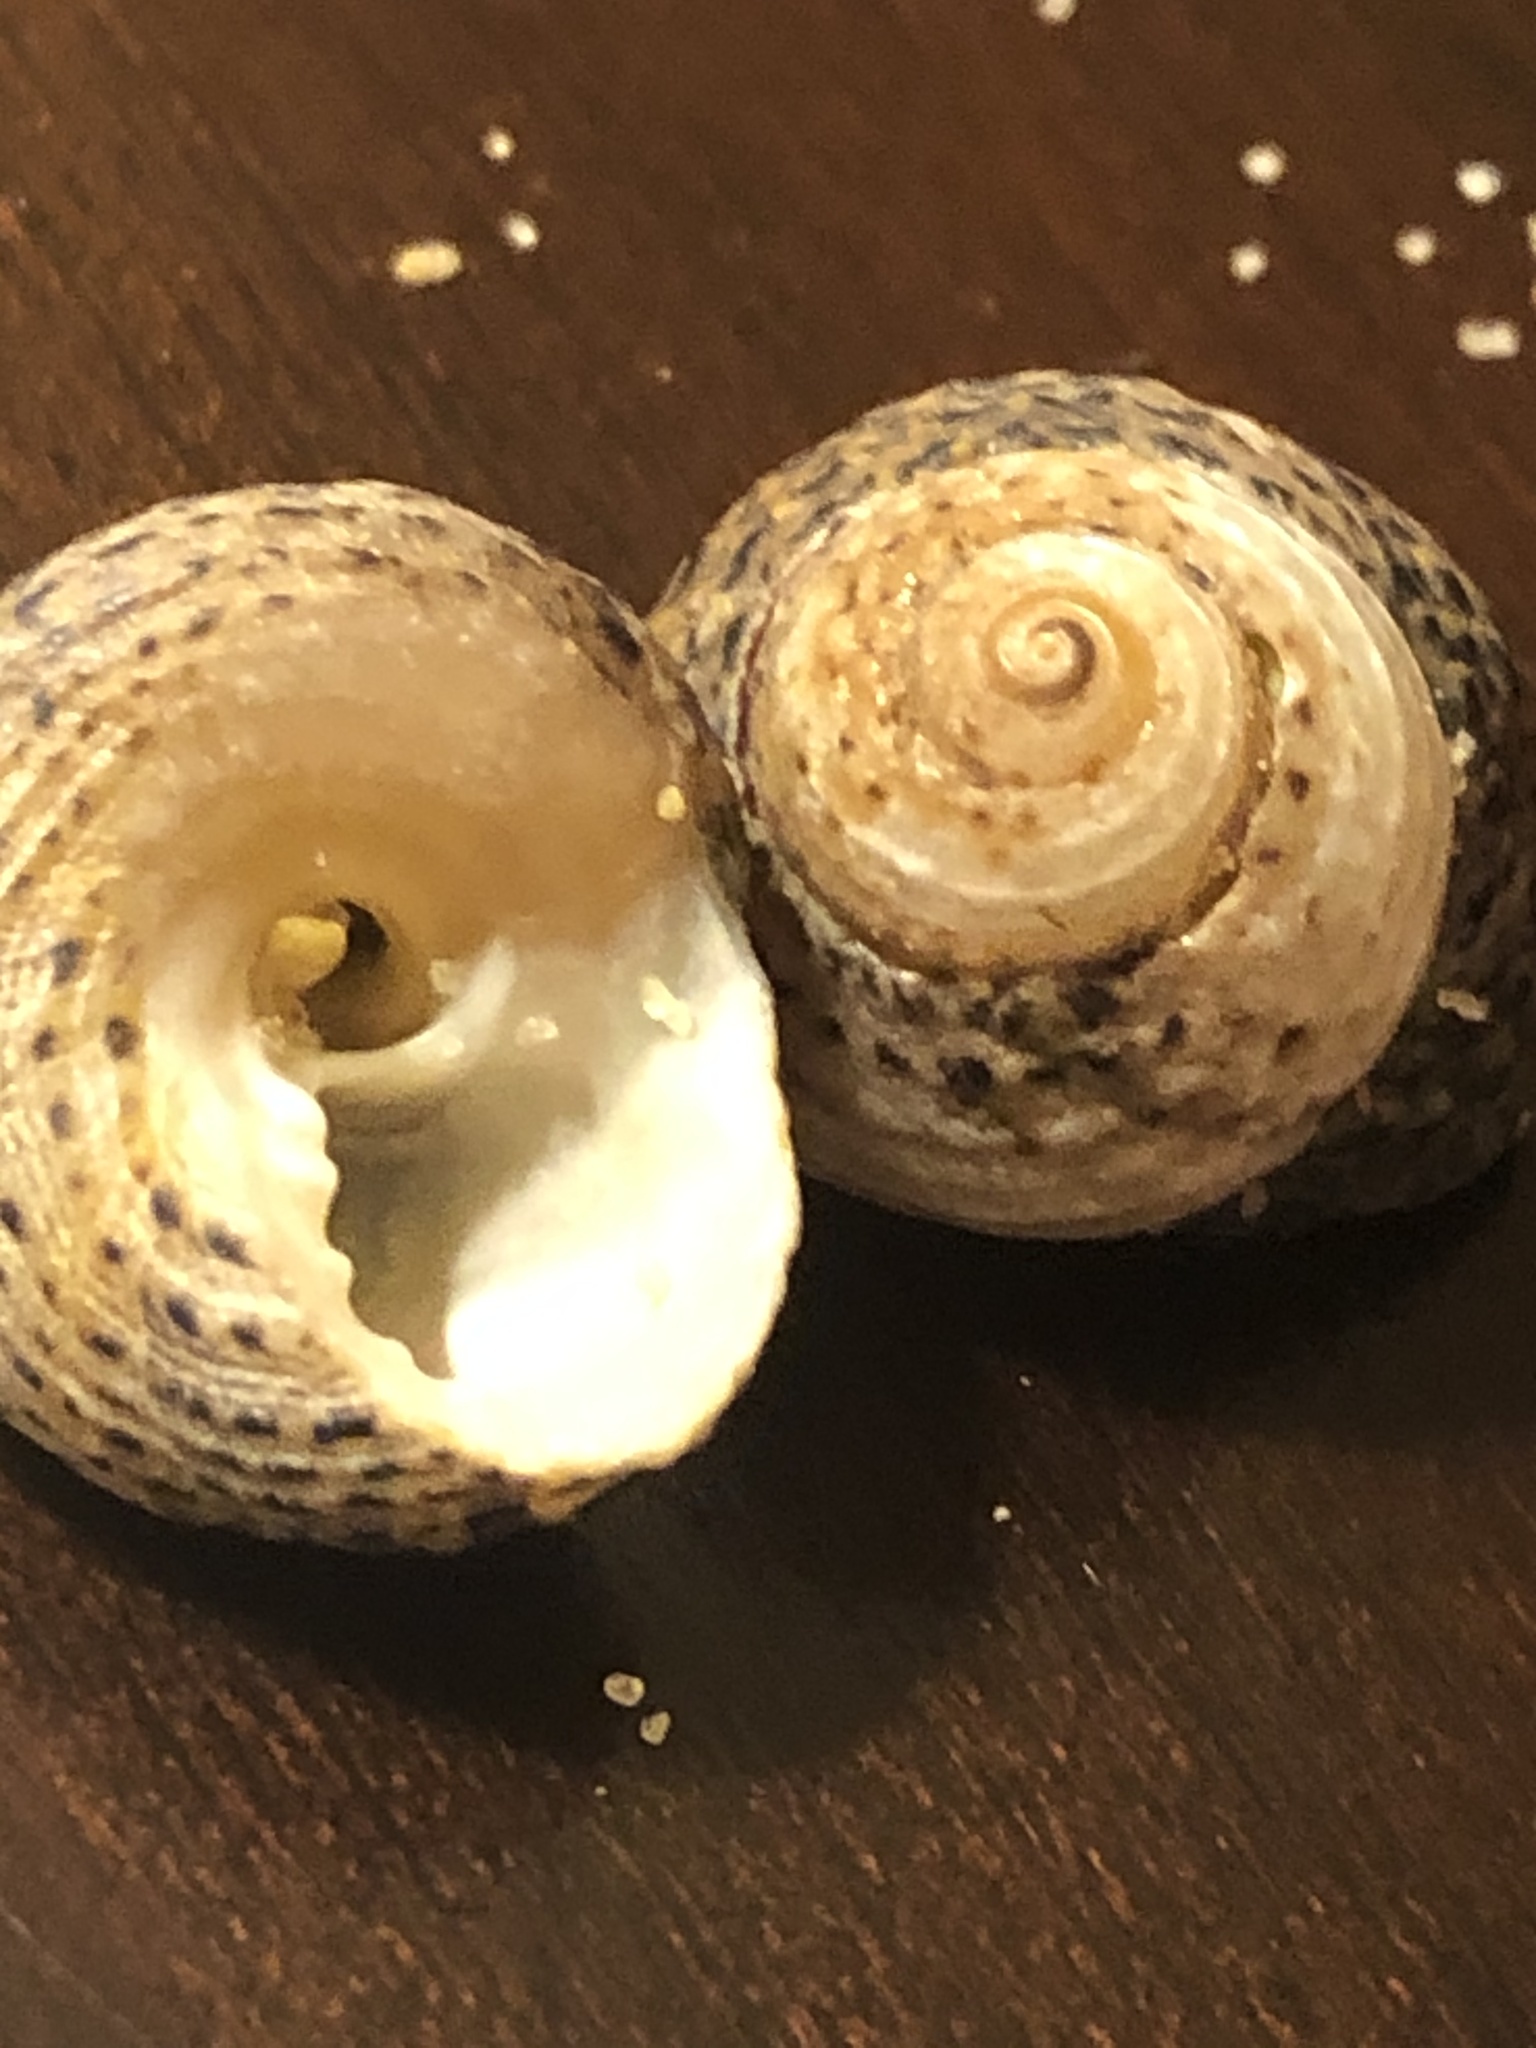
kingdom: Animalia
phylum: Mollusca
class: Gastropoda
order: Trochida
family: Tegulidae
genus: Tegula
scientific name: Tegula eiseni
